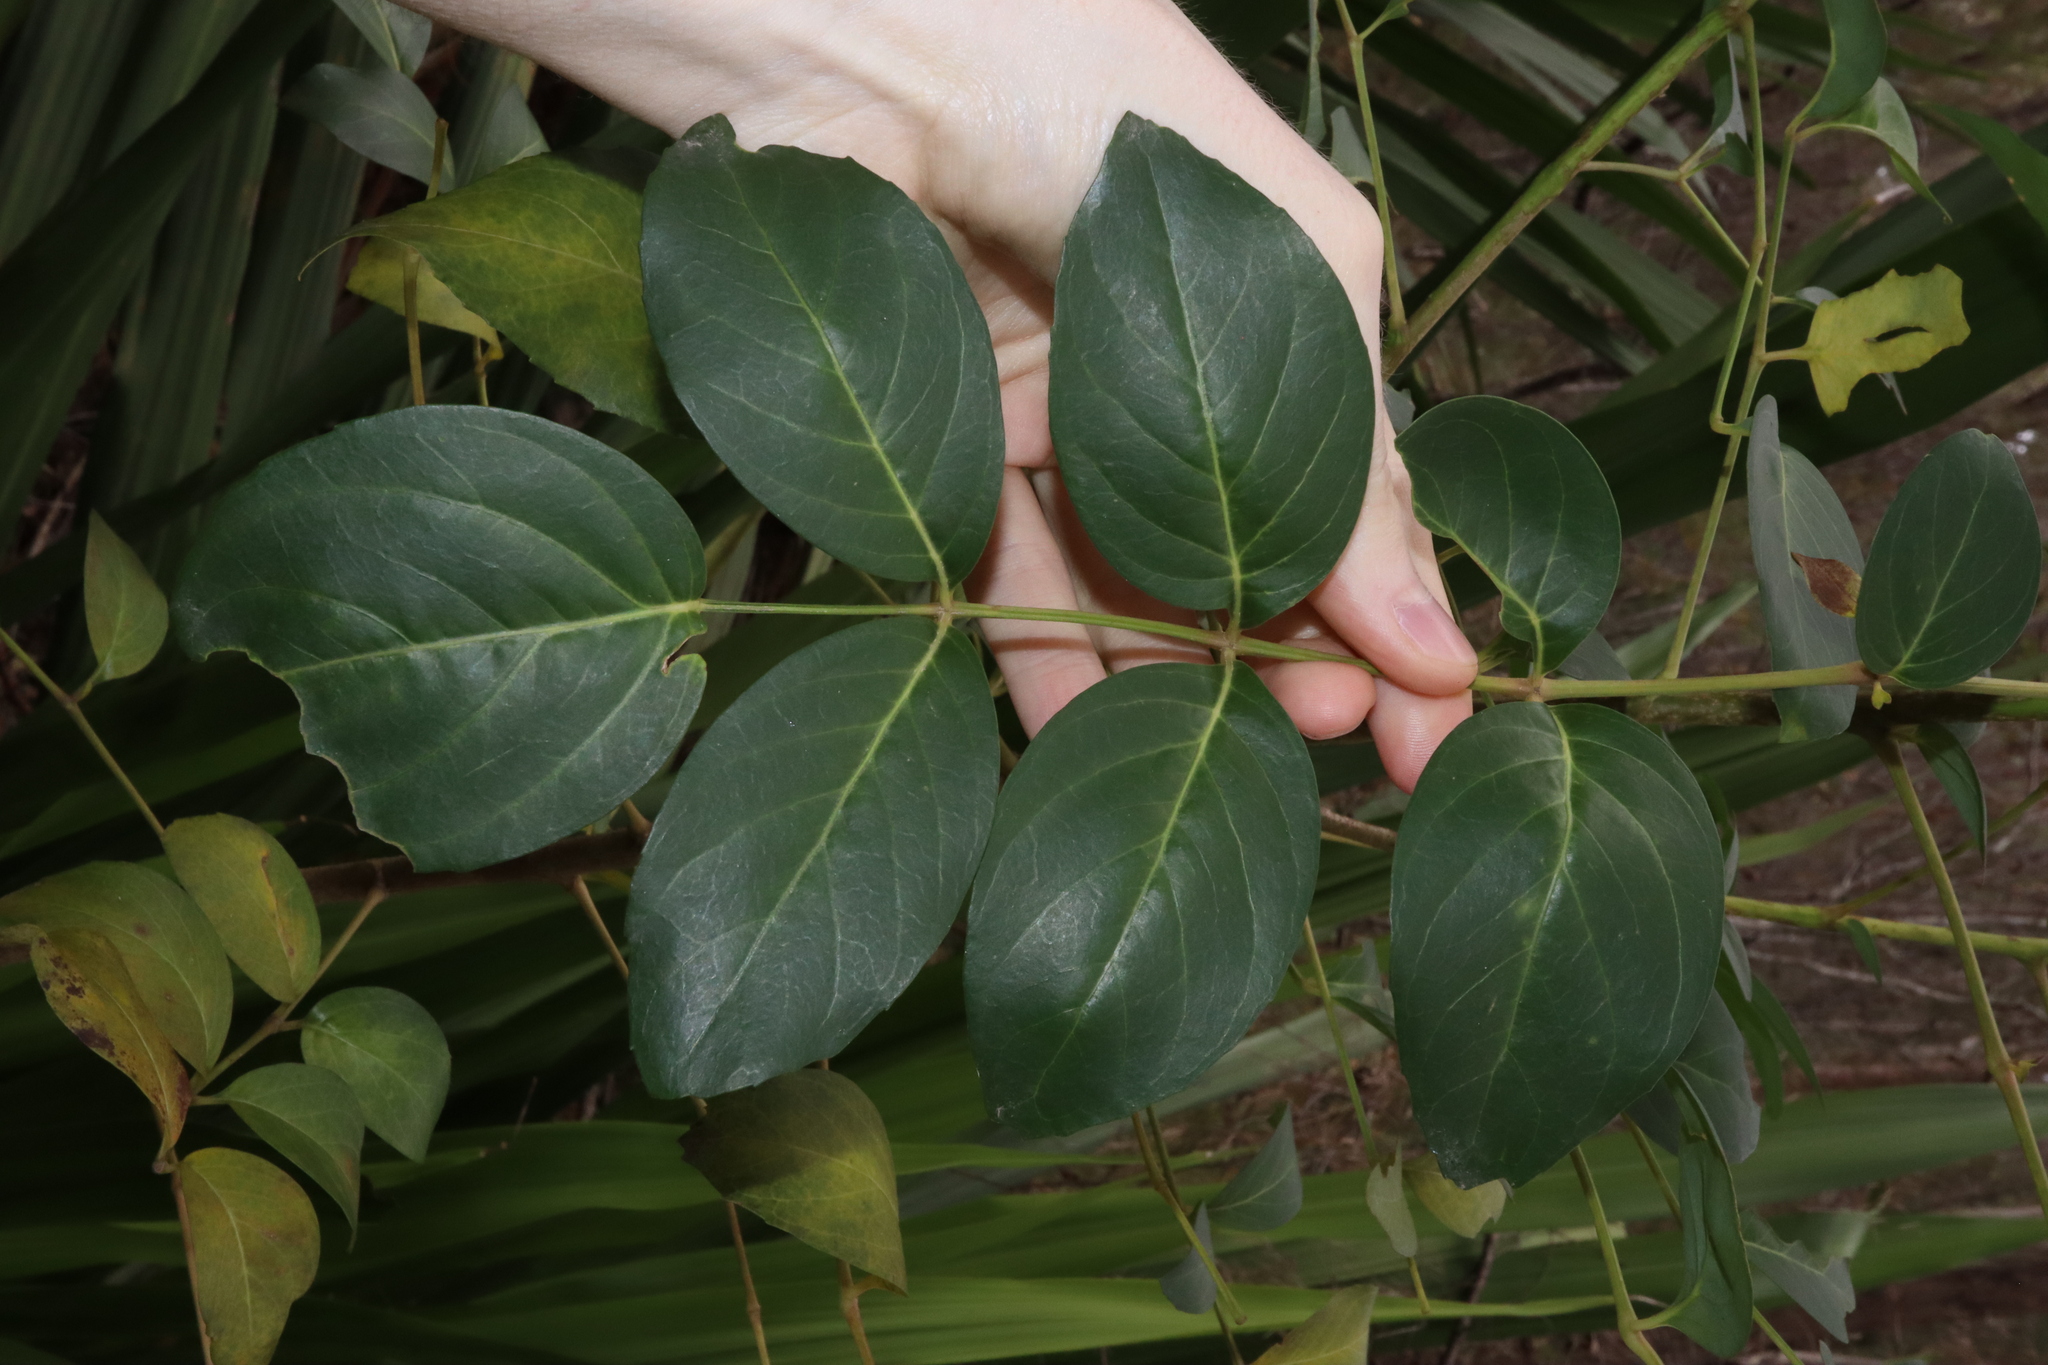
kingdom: Plantae
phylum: Tracheophyta
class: Magnoliopsida
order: Apiales
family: Araliaceae
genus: Polyscias
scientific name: Polyscias sambucifolia
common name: Elderberry-ash
